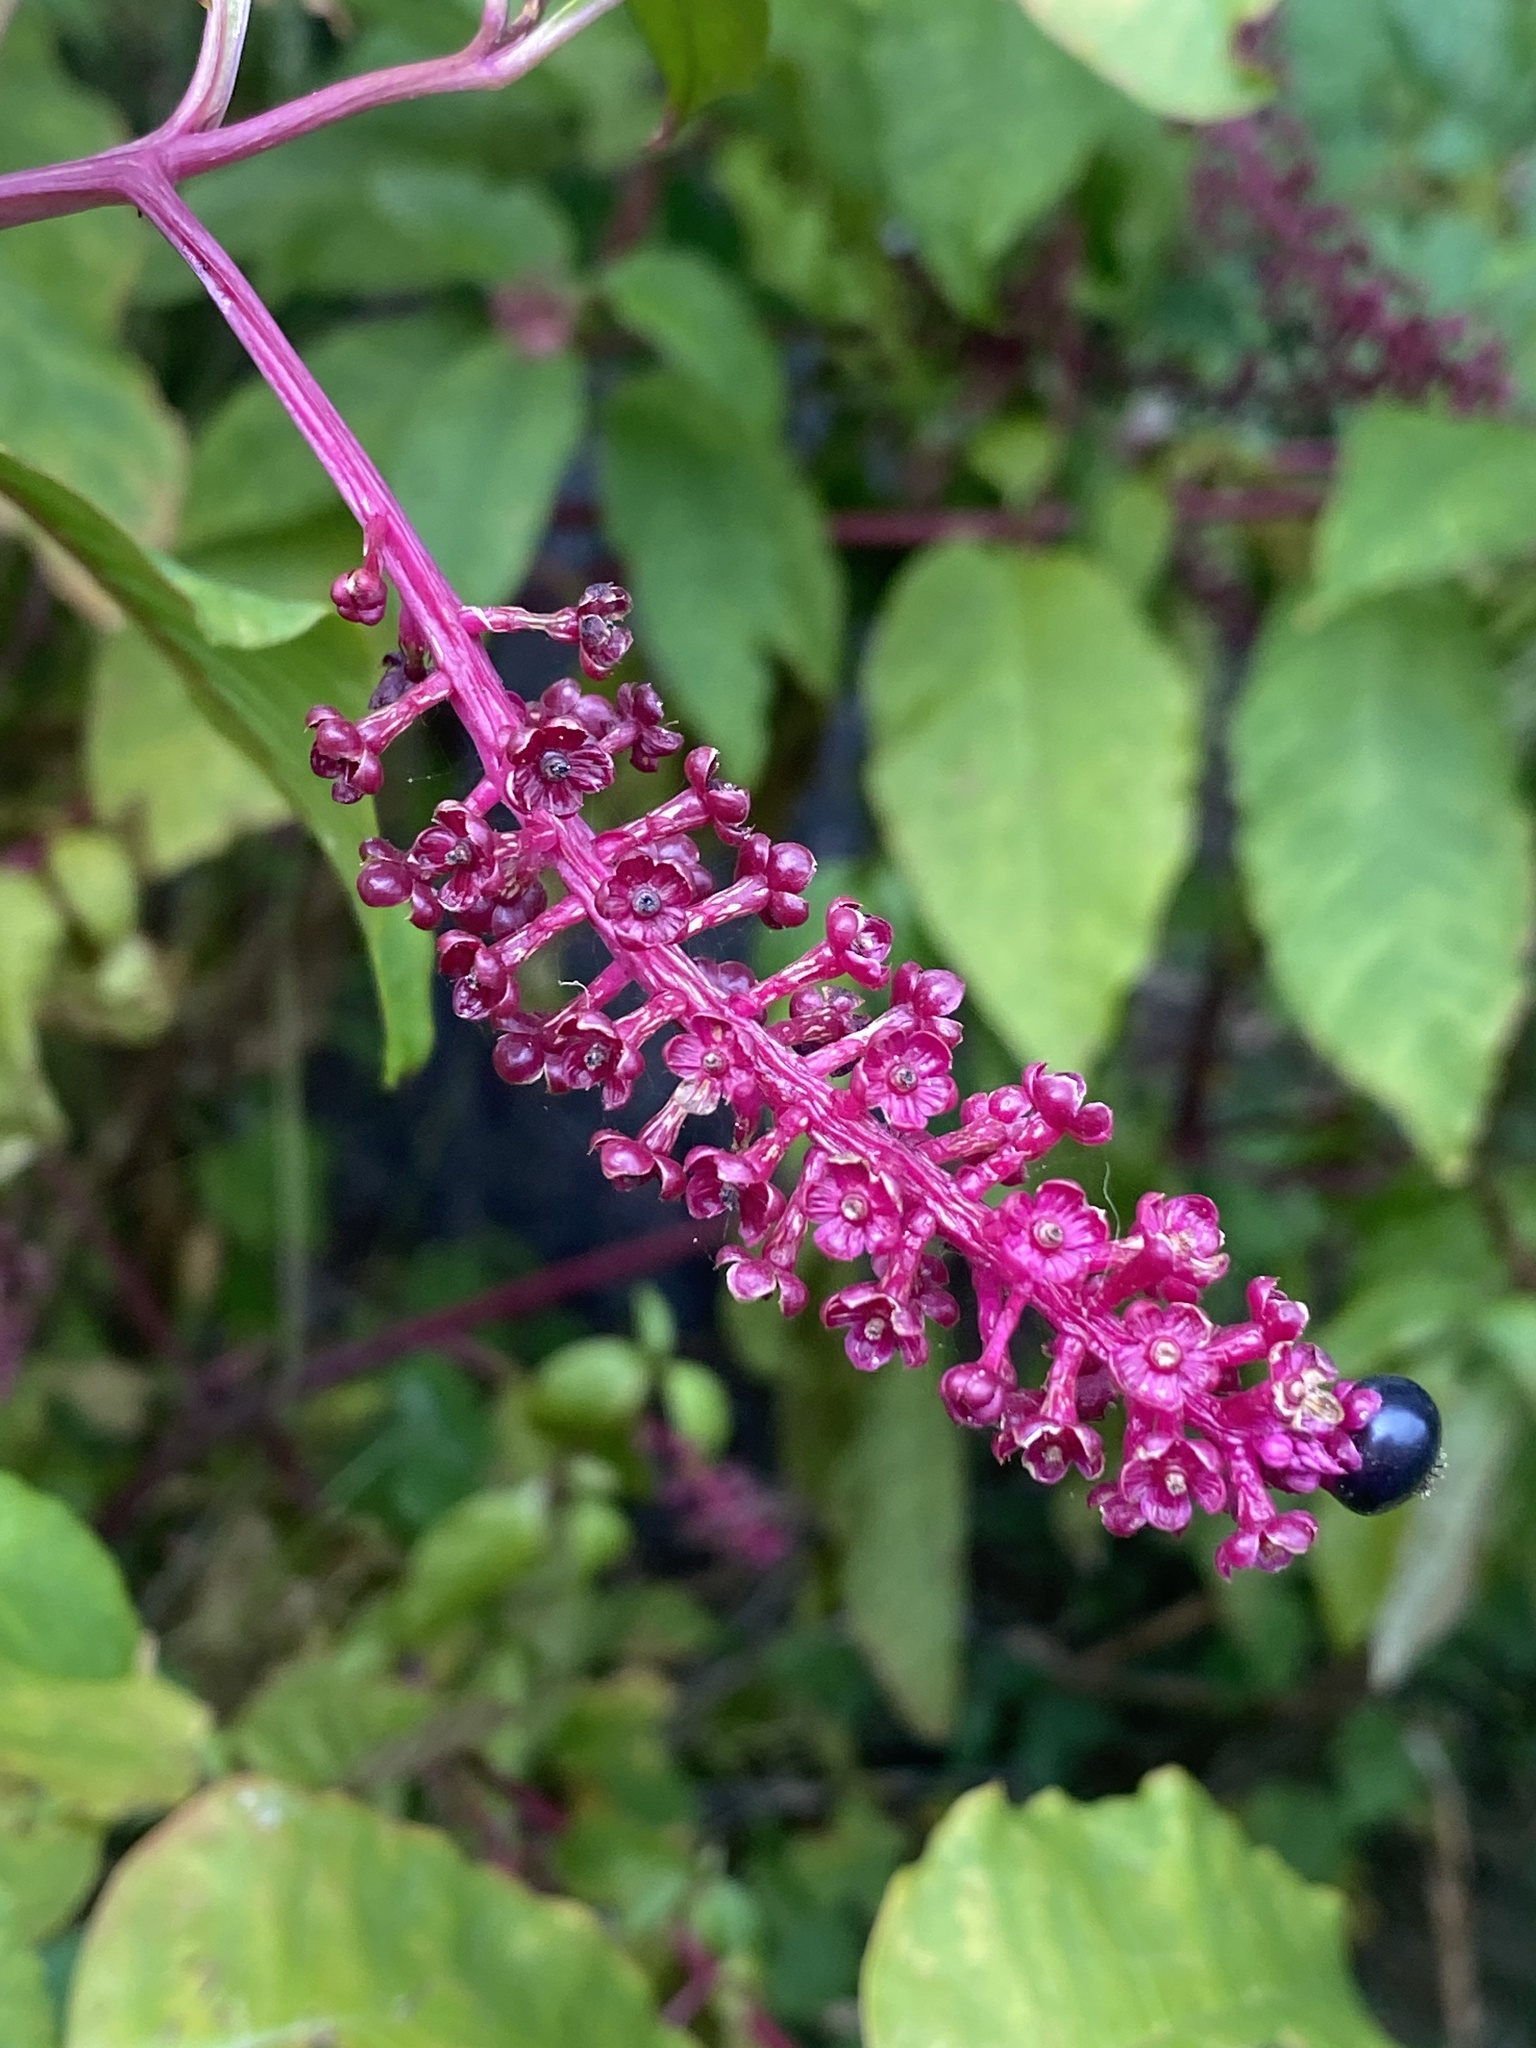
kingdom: Plantae
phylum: Tracheophyta
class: Magnoliopsida
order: Caryophyllales
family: Phytolaccaceae
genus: Phytolacca
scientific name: Phytolacca americana
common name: American pokeweed
